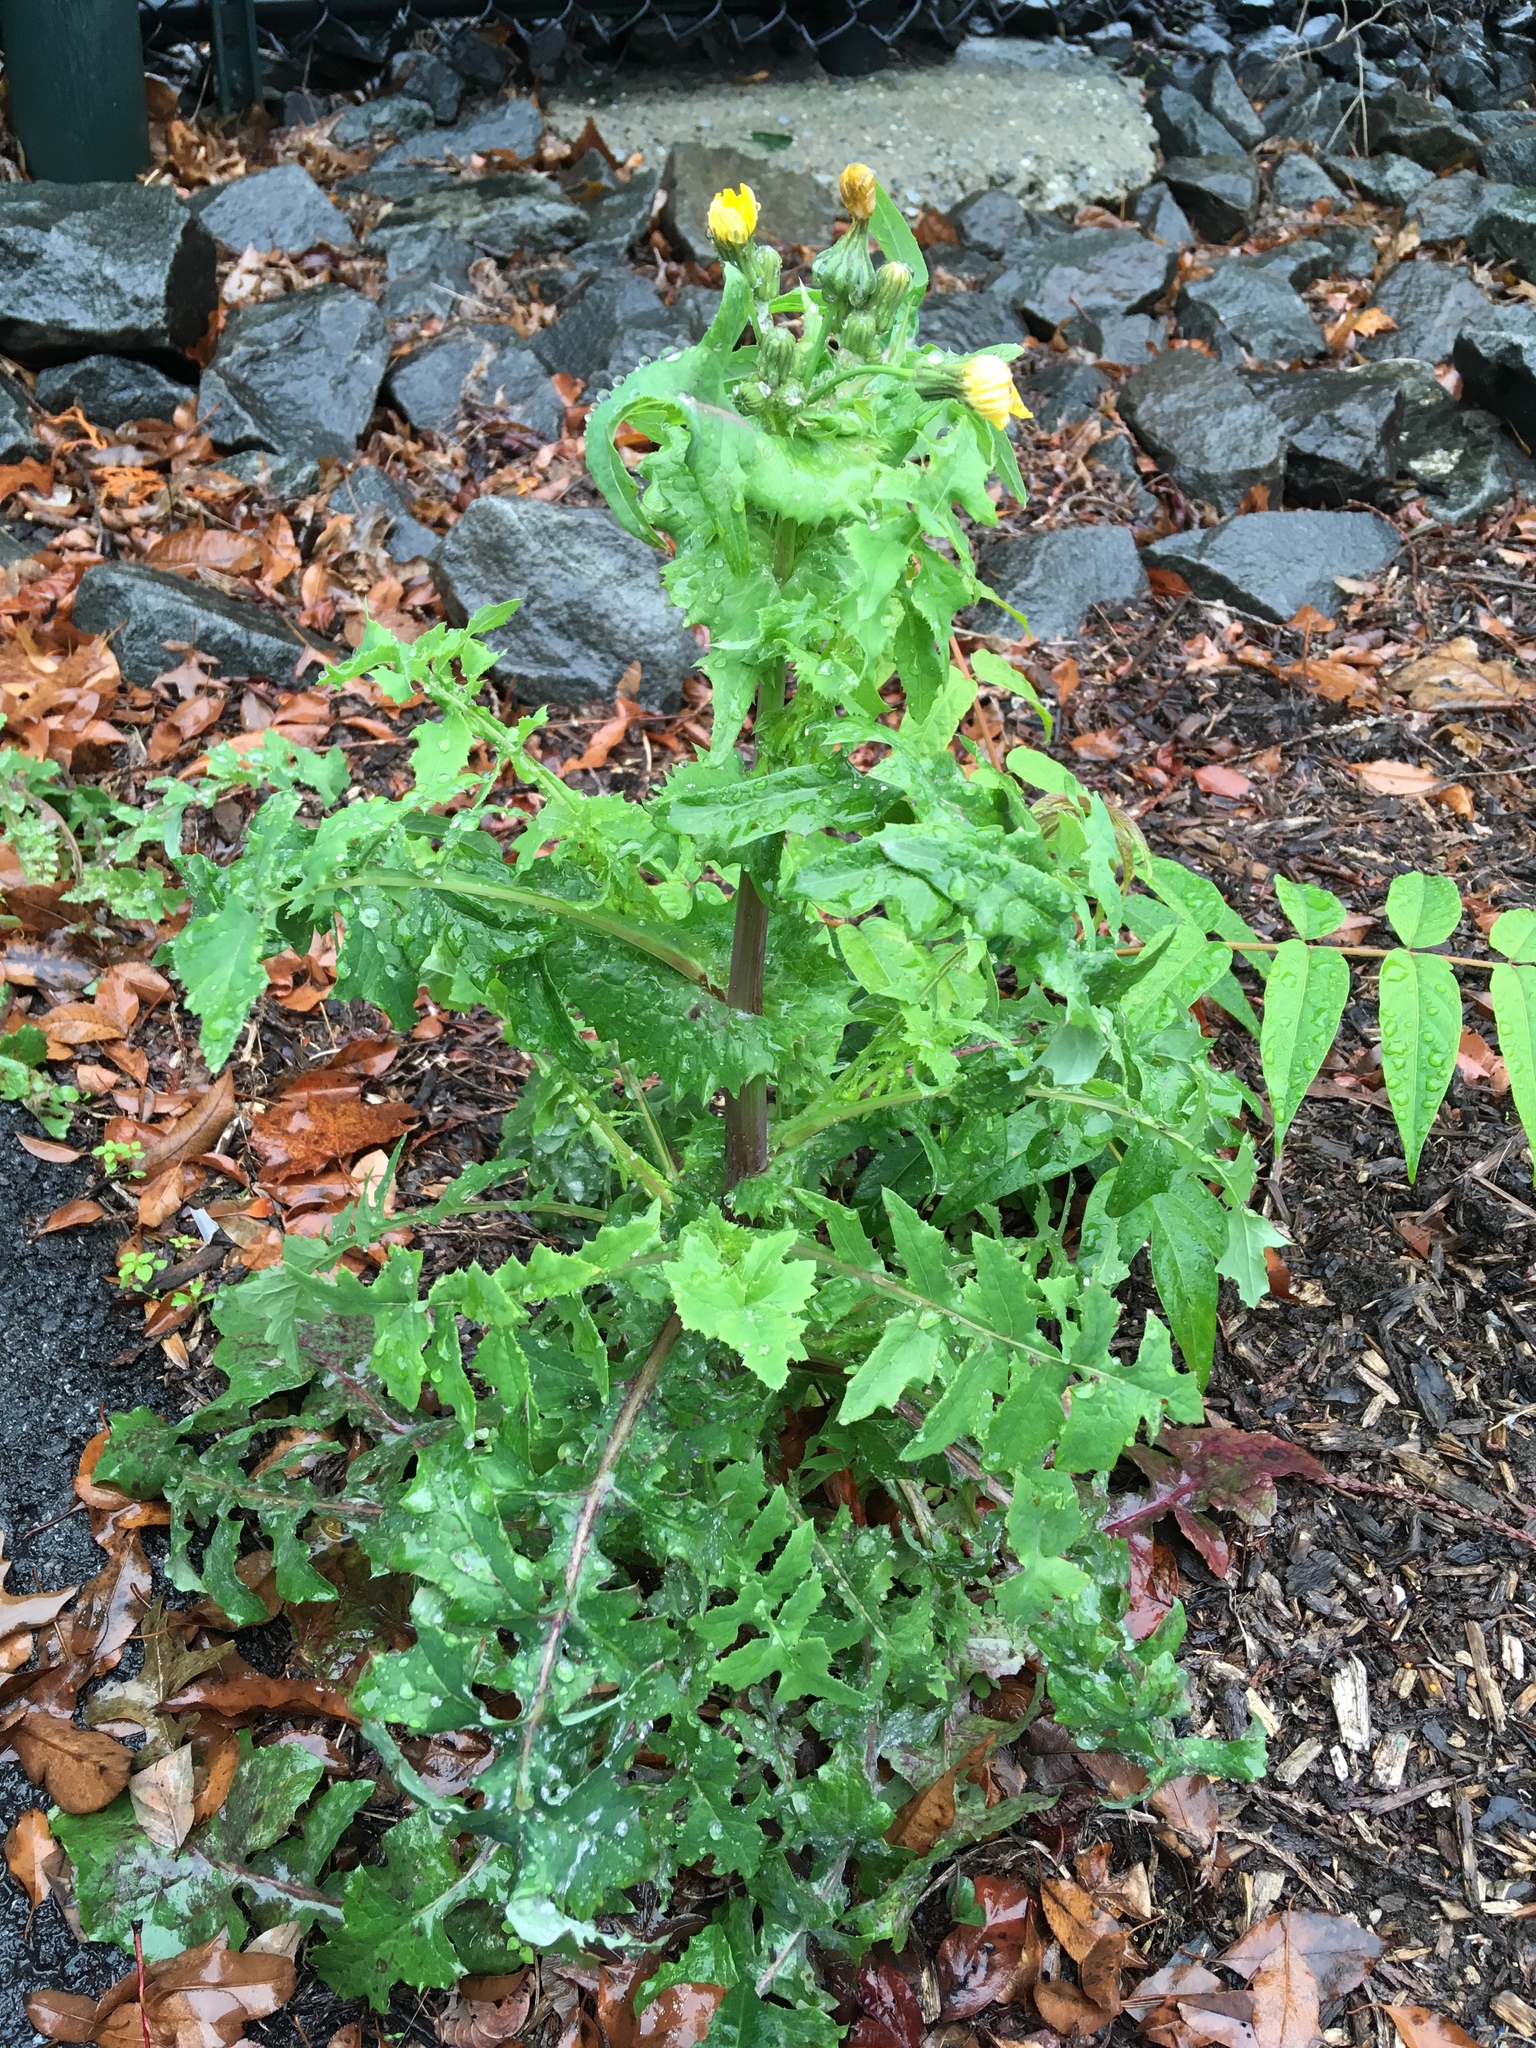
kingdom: Plantae
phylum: Tracheophyta
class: Magnoliopsida
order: Asterales
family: Asteraceae
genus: Sonchus
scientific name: Sonchus oleraceus
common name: Common sowthistle
